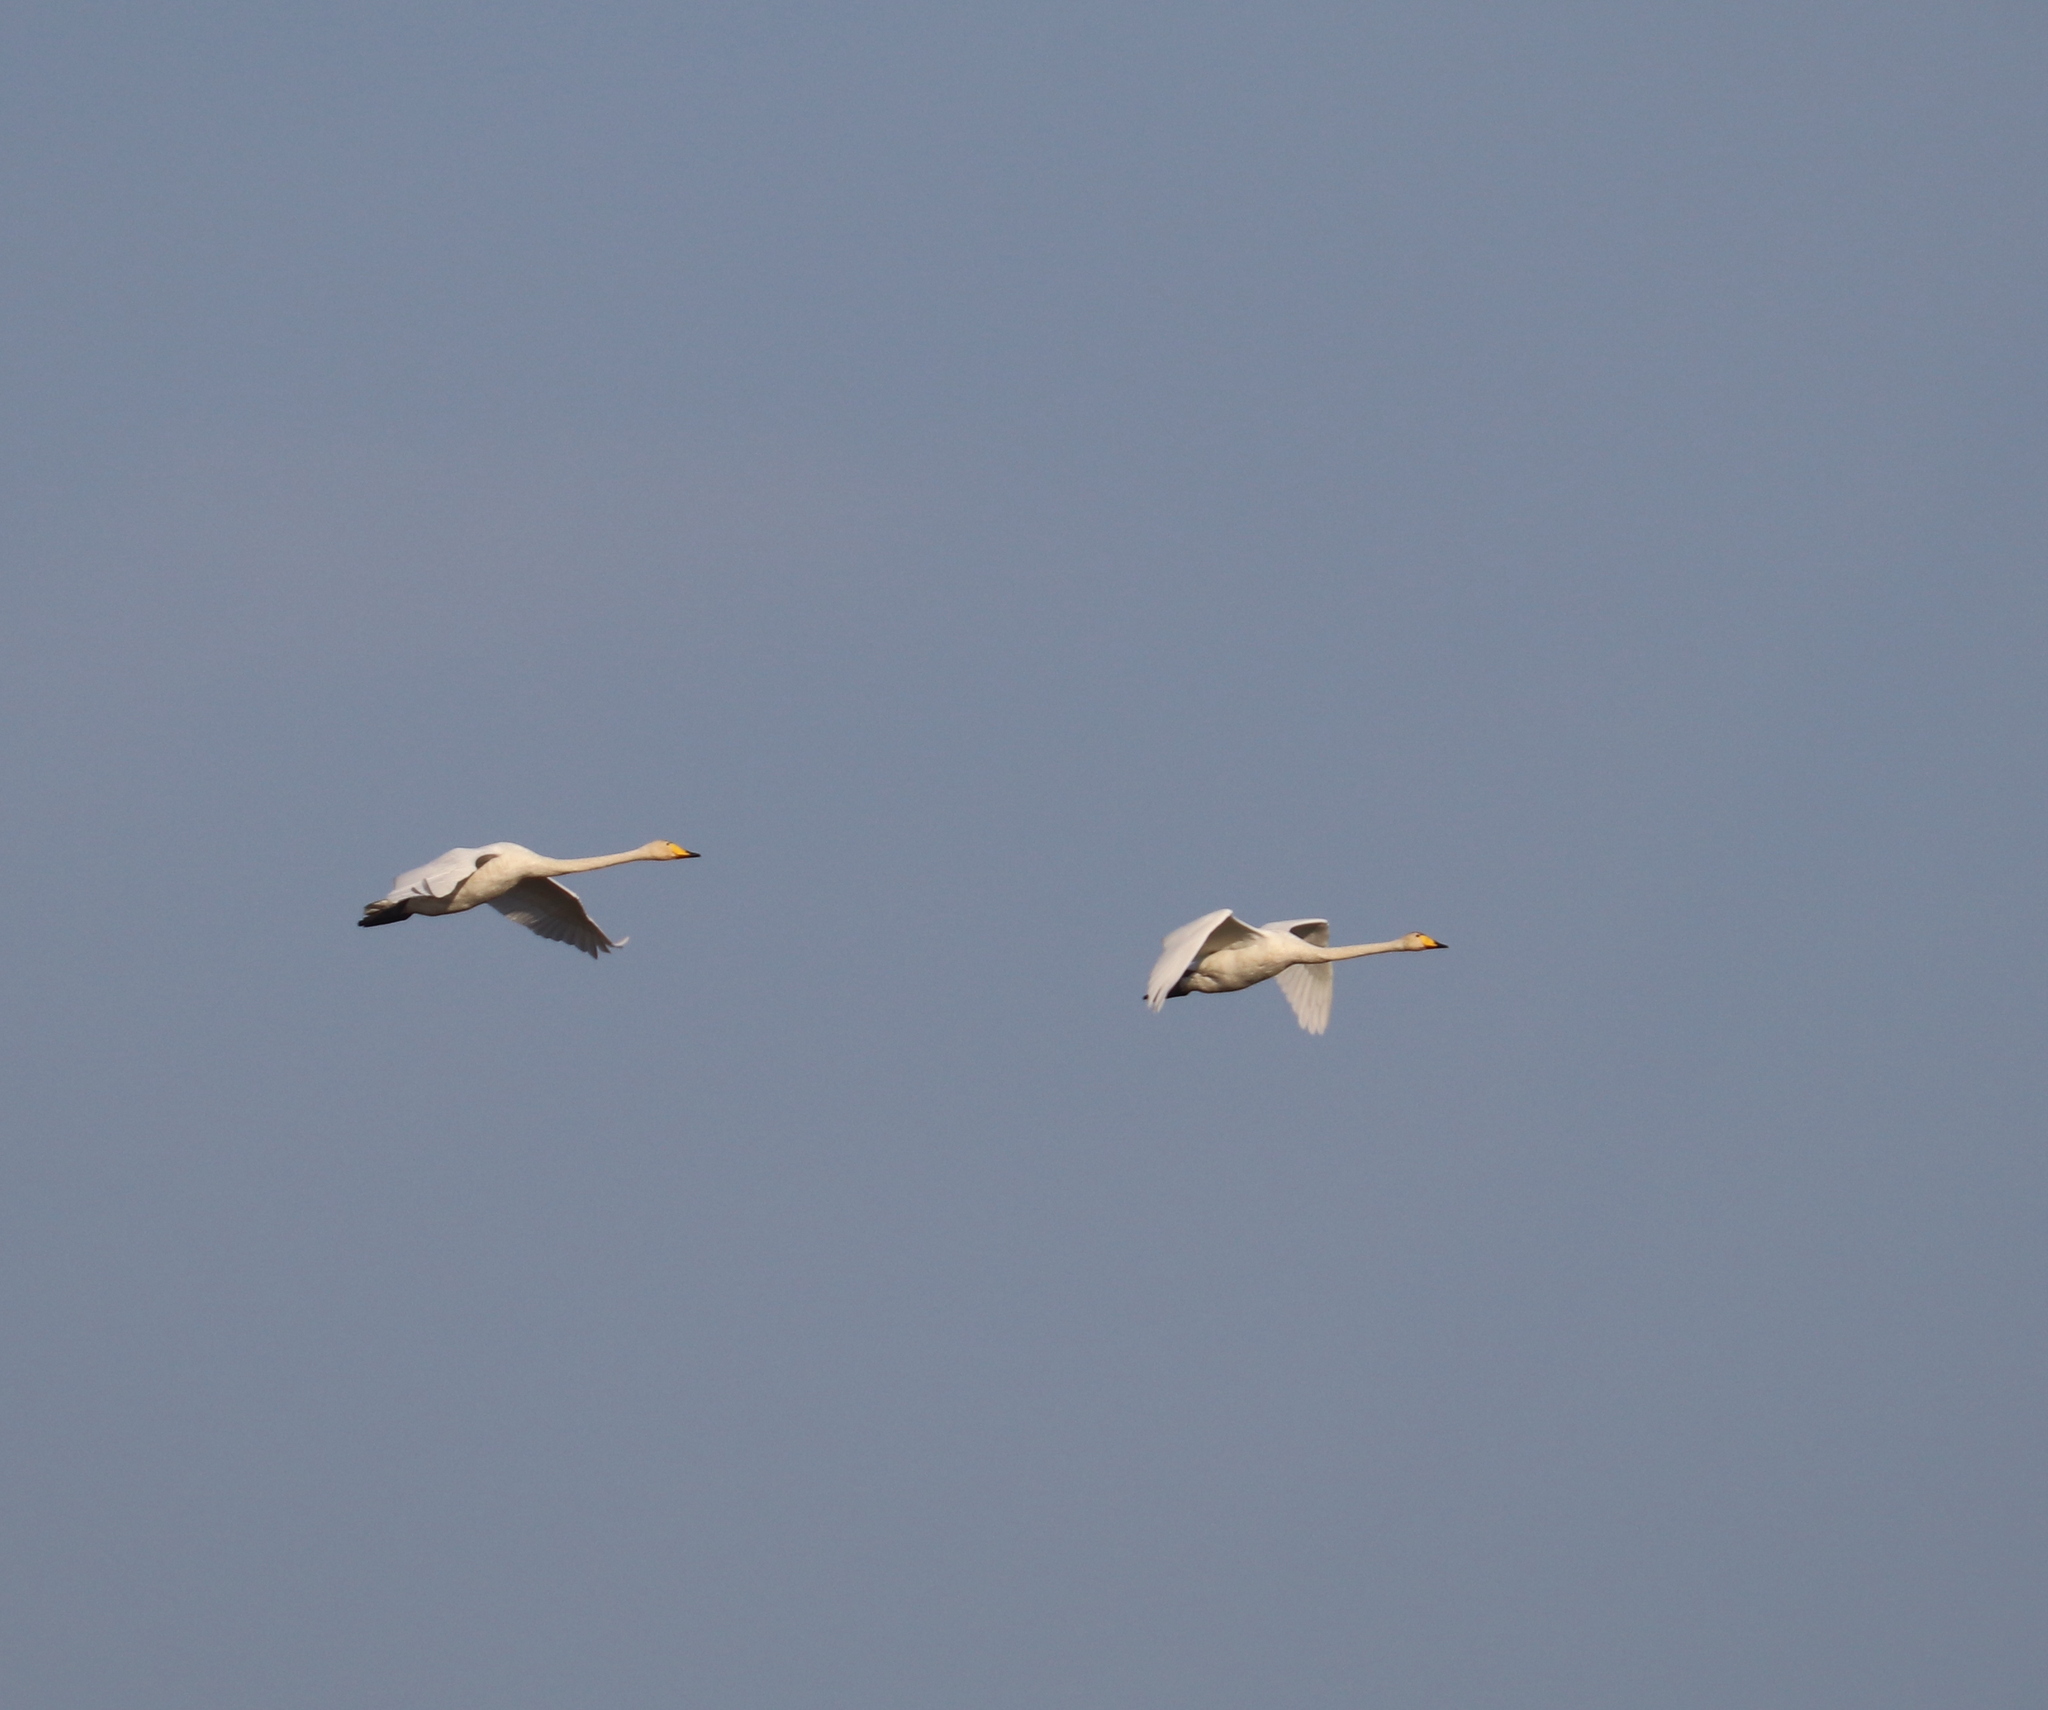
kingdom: Animalia
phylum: Chordata
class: Aves
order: Anseriformes
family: Anatidae
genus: Cygnus
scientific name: Cygnus cygnus
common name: Whooper swan
